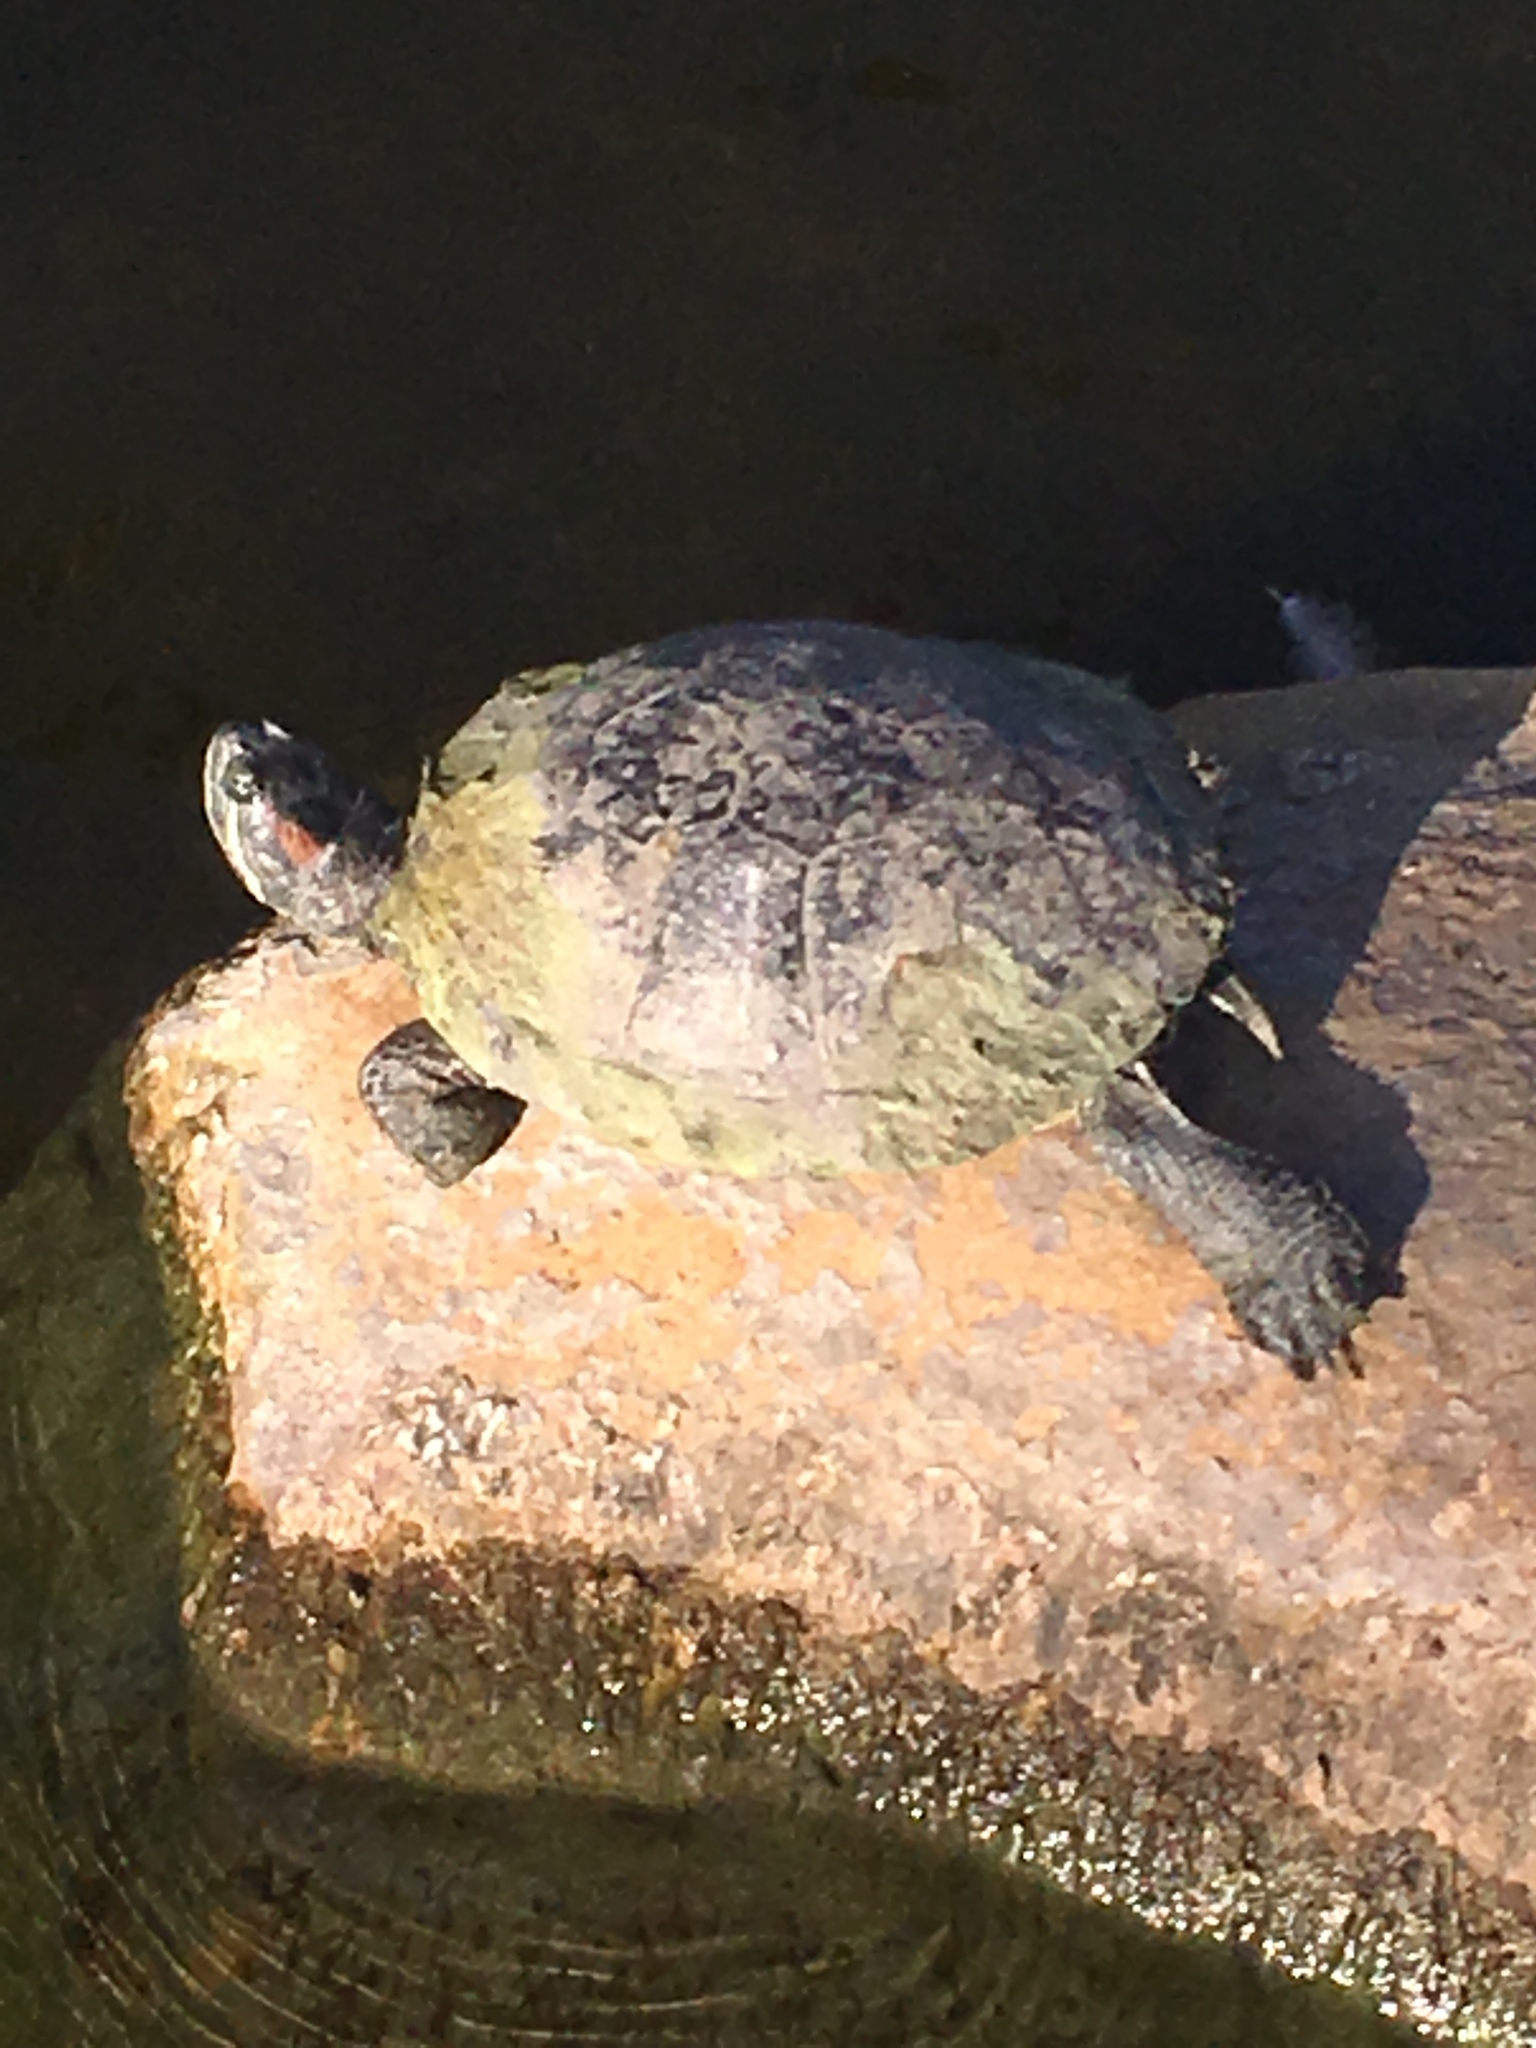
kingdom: Animalia
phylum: Chordata
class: Testudines
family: Emydidae
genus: Trachemys
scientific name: Trachemys scripta
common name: Slider
